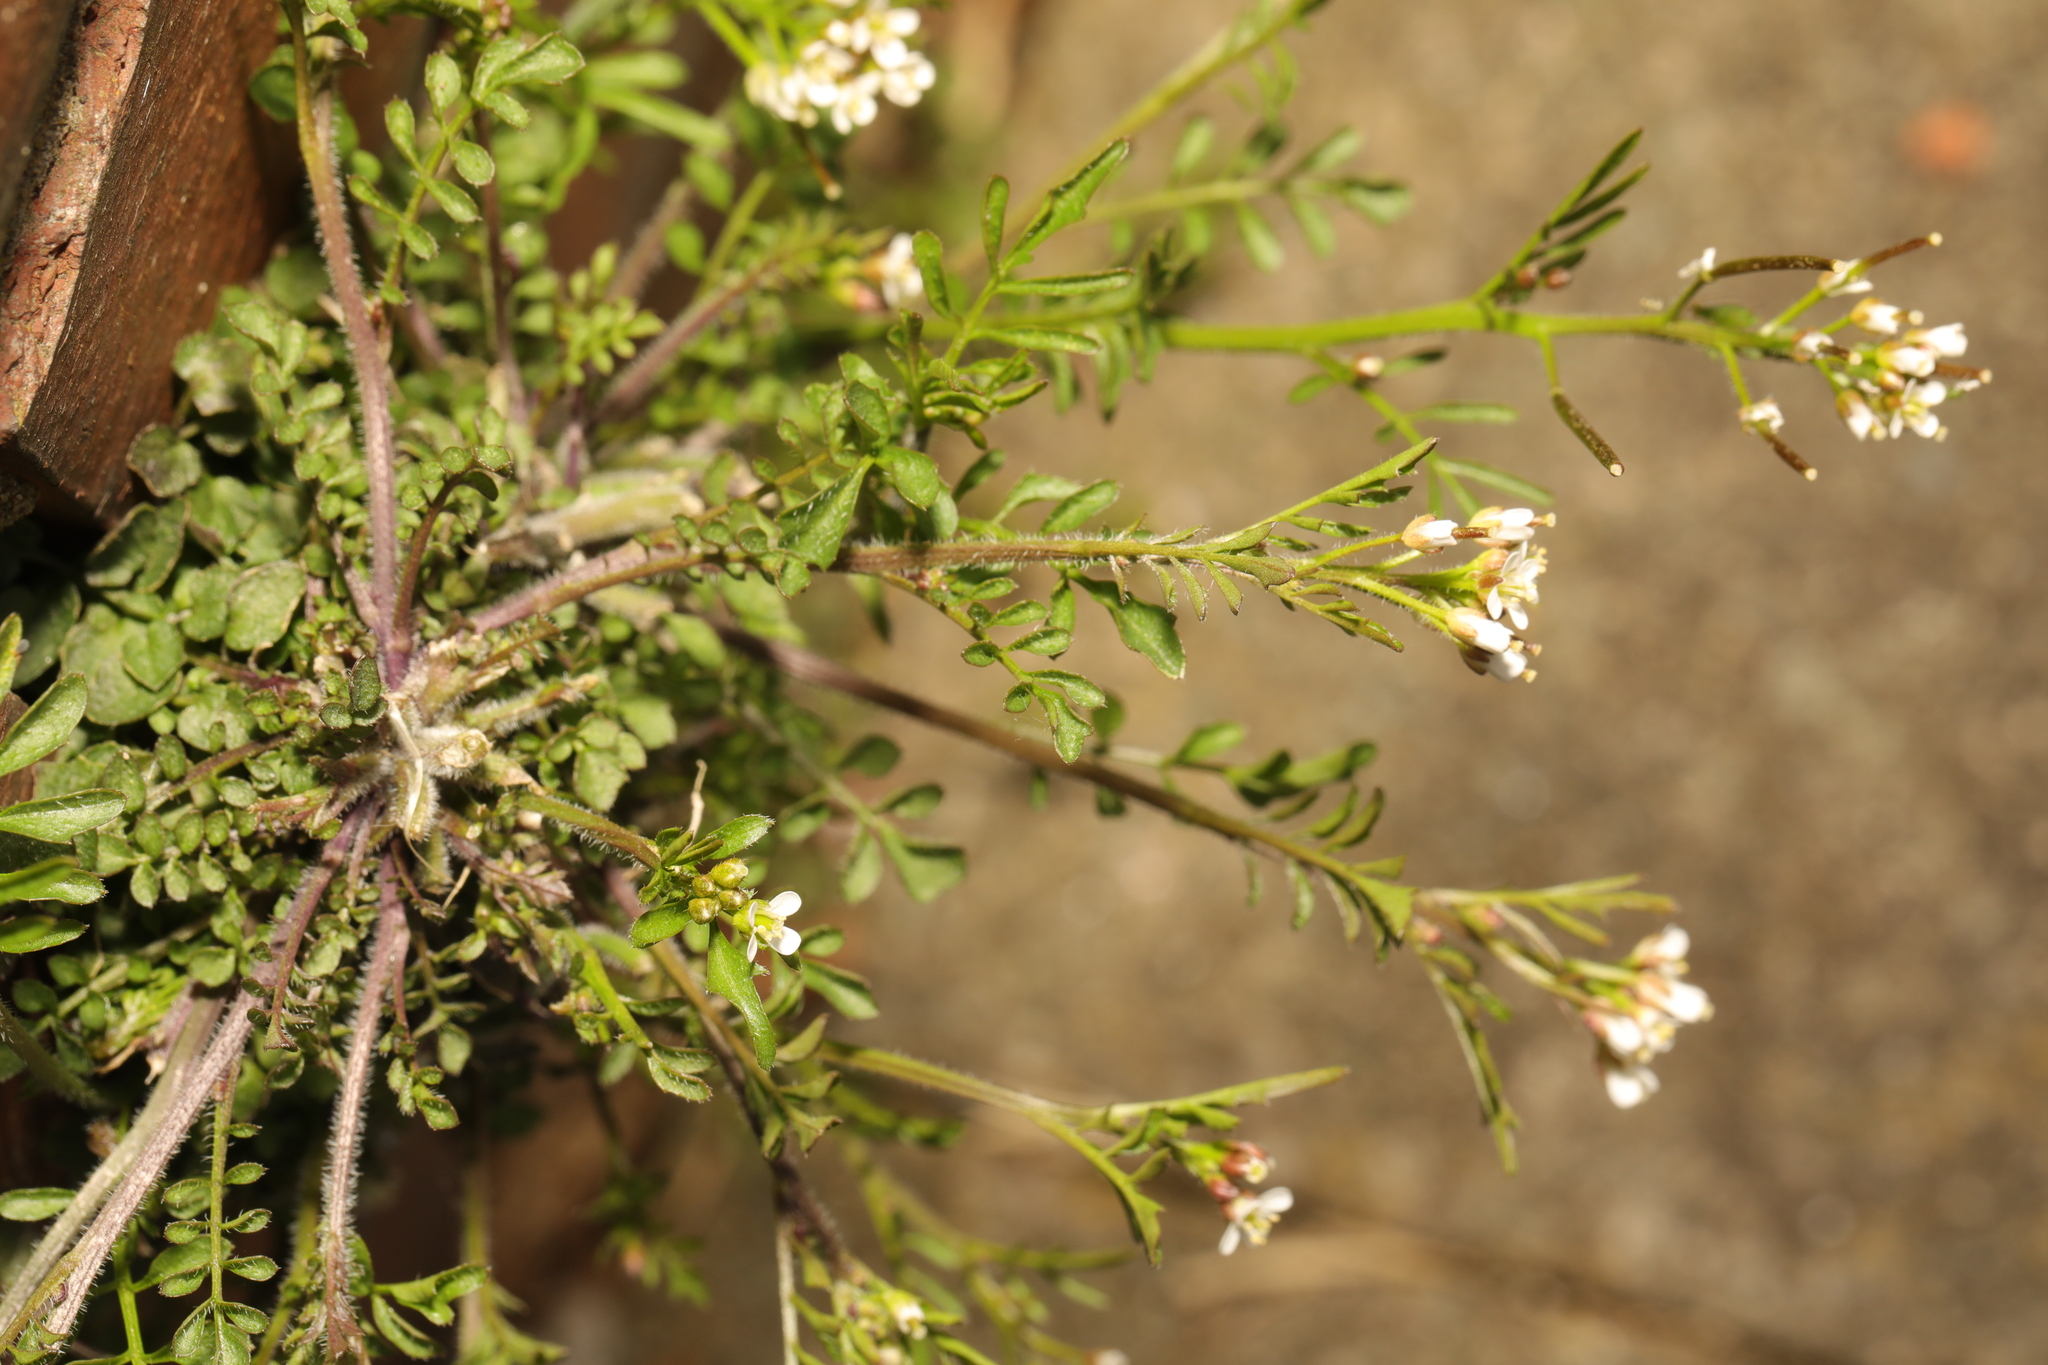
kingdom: Plantae
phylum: Tracheophyta
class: Magnoliopsida
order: Brassicales
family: Brassicaceae
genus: Cardamine
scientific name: Cardamine flexuosa
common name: Woodland bittercress
